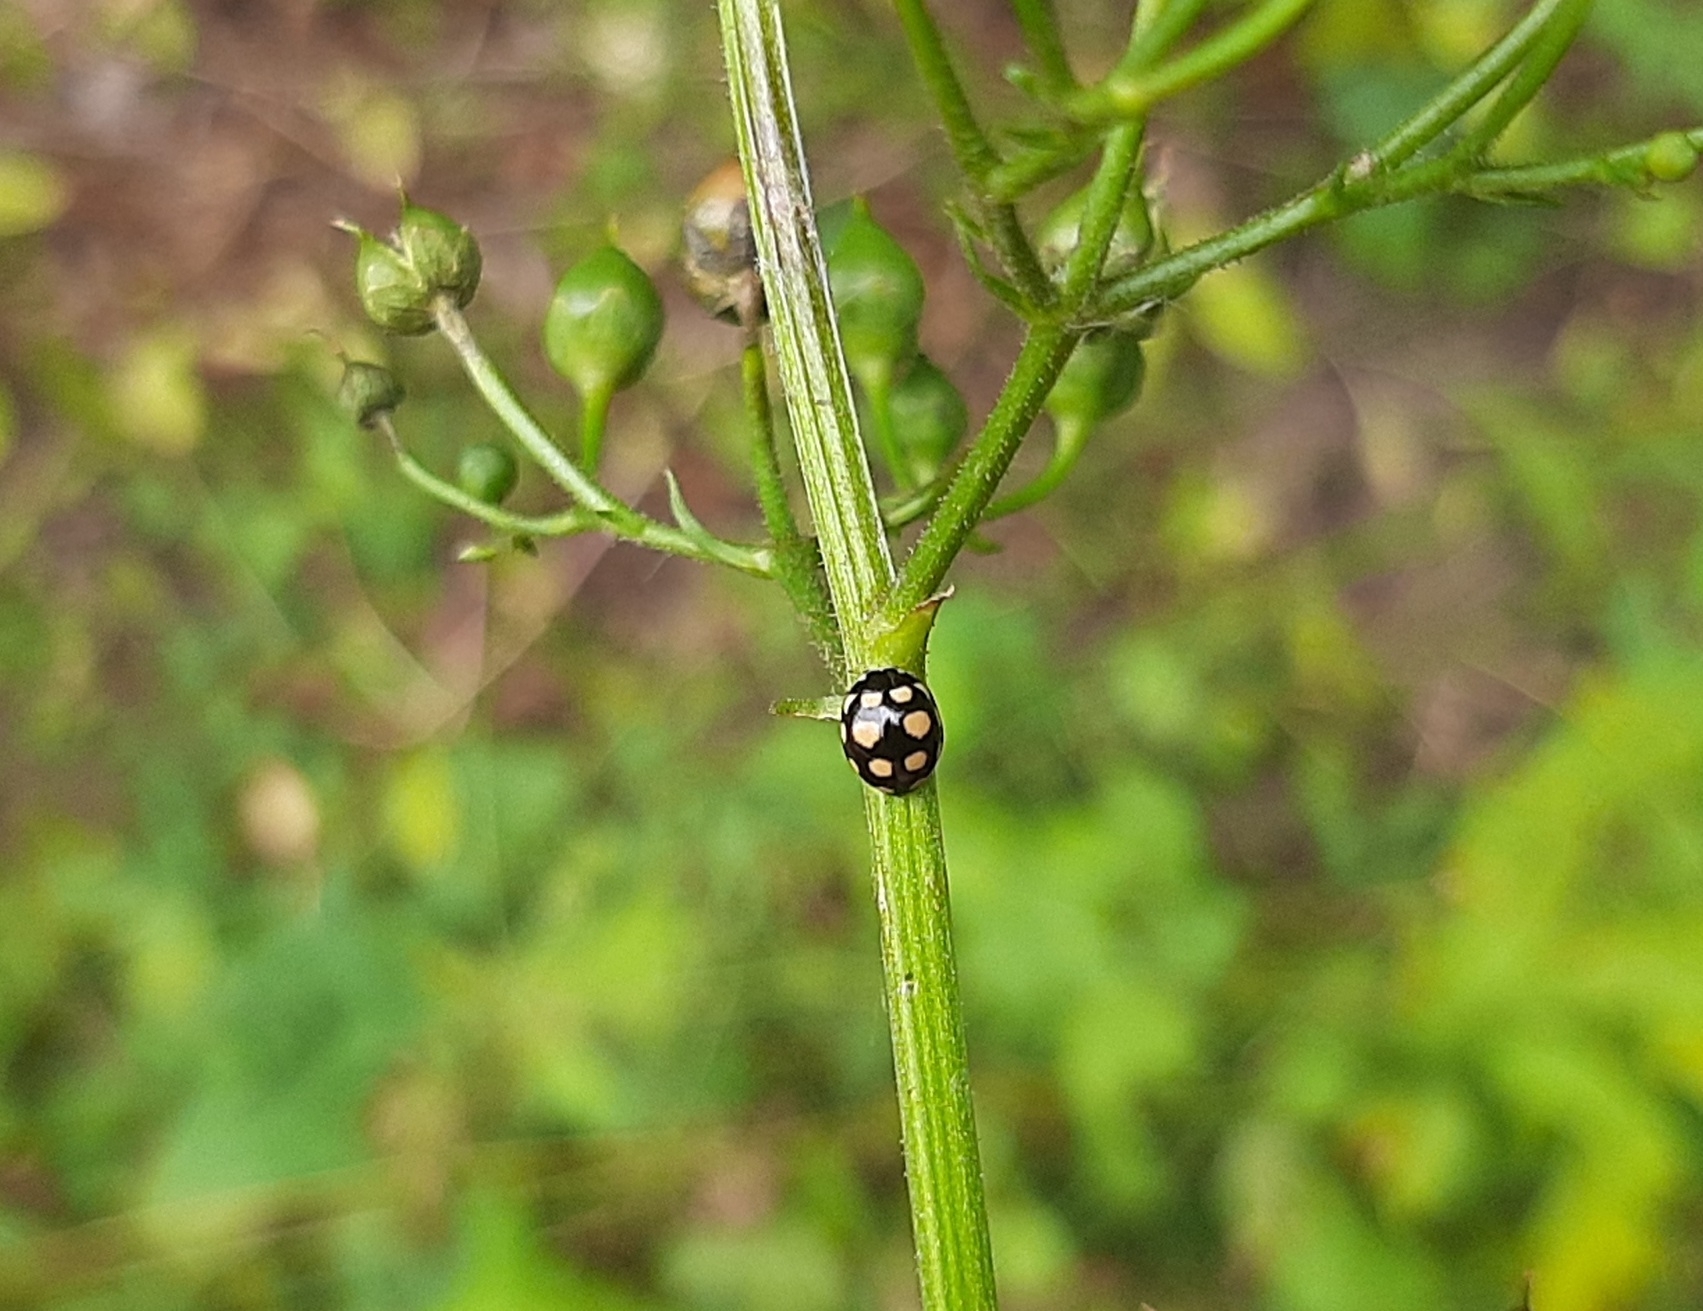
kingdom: Animalia
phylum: Arthropoda
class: Insecta
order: Coleoptera
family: Coccinellidae
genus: Coccinula
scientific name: Coccinula quatuordecimpustulata
